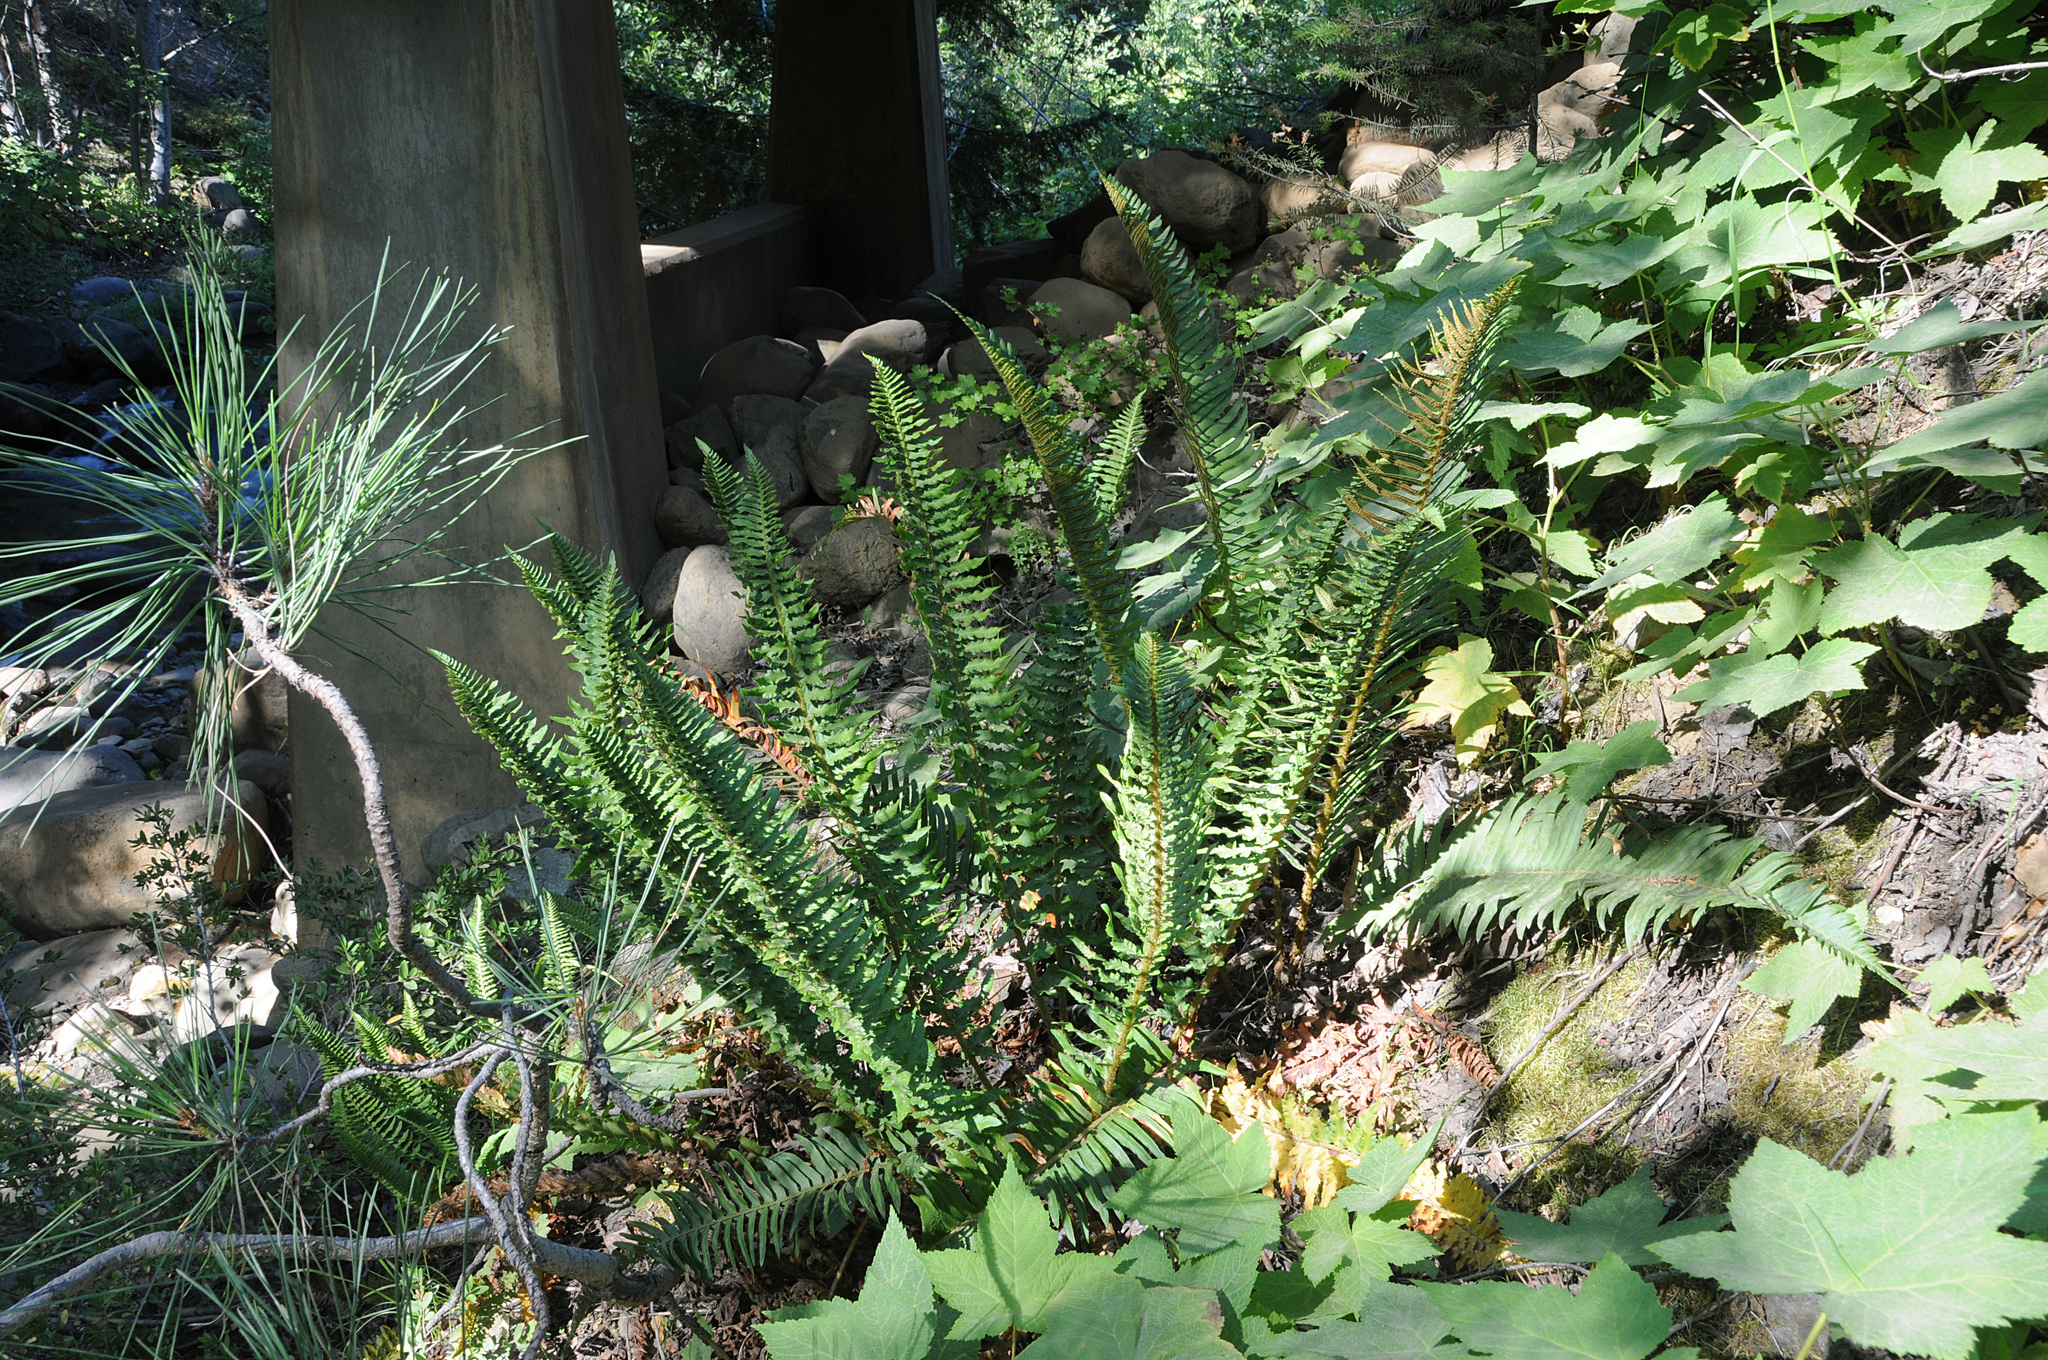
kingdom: Plantae
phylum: Tracheophyta
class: Polypodiopsida
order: Polypodiales
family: Dryopteridaceae
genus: Polystichum
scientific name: Polystichum
